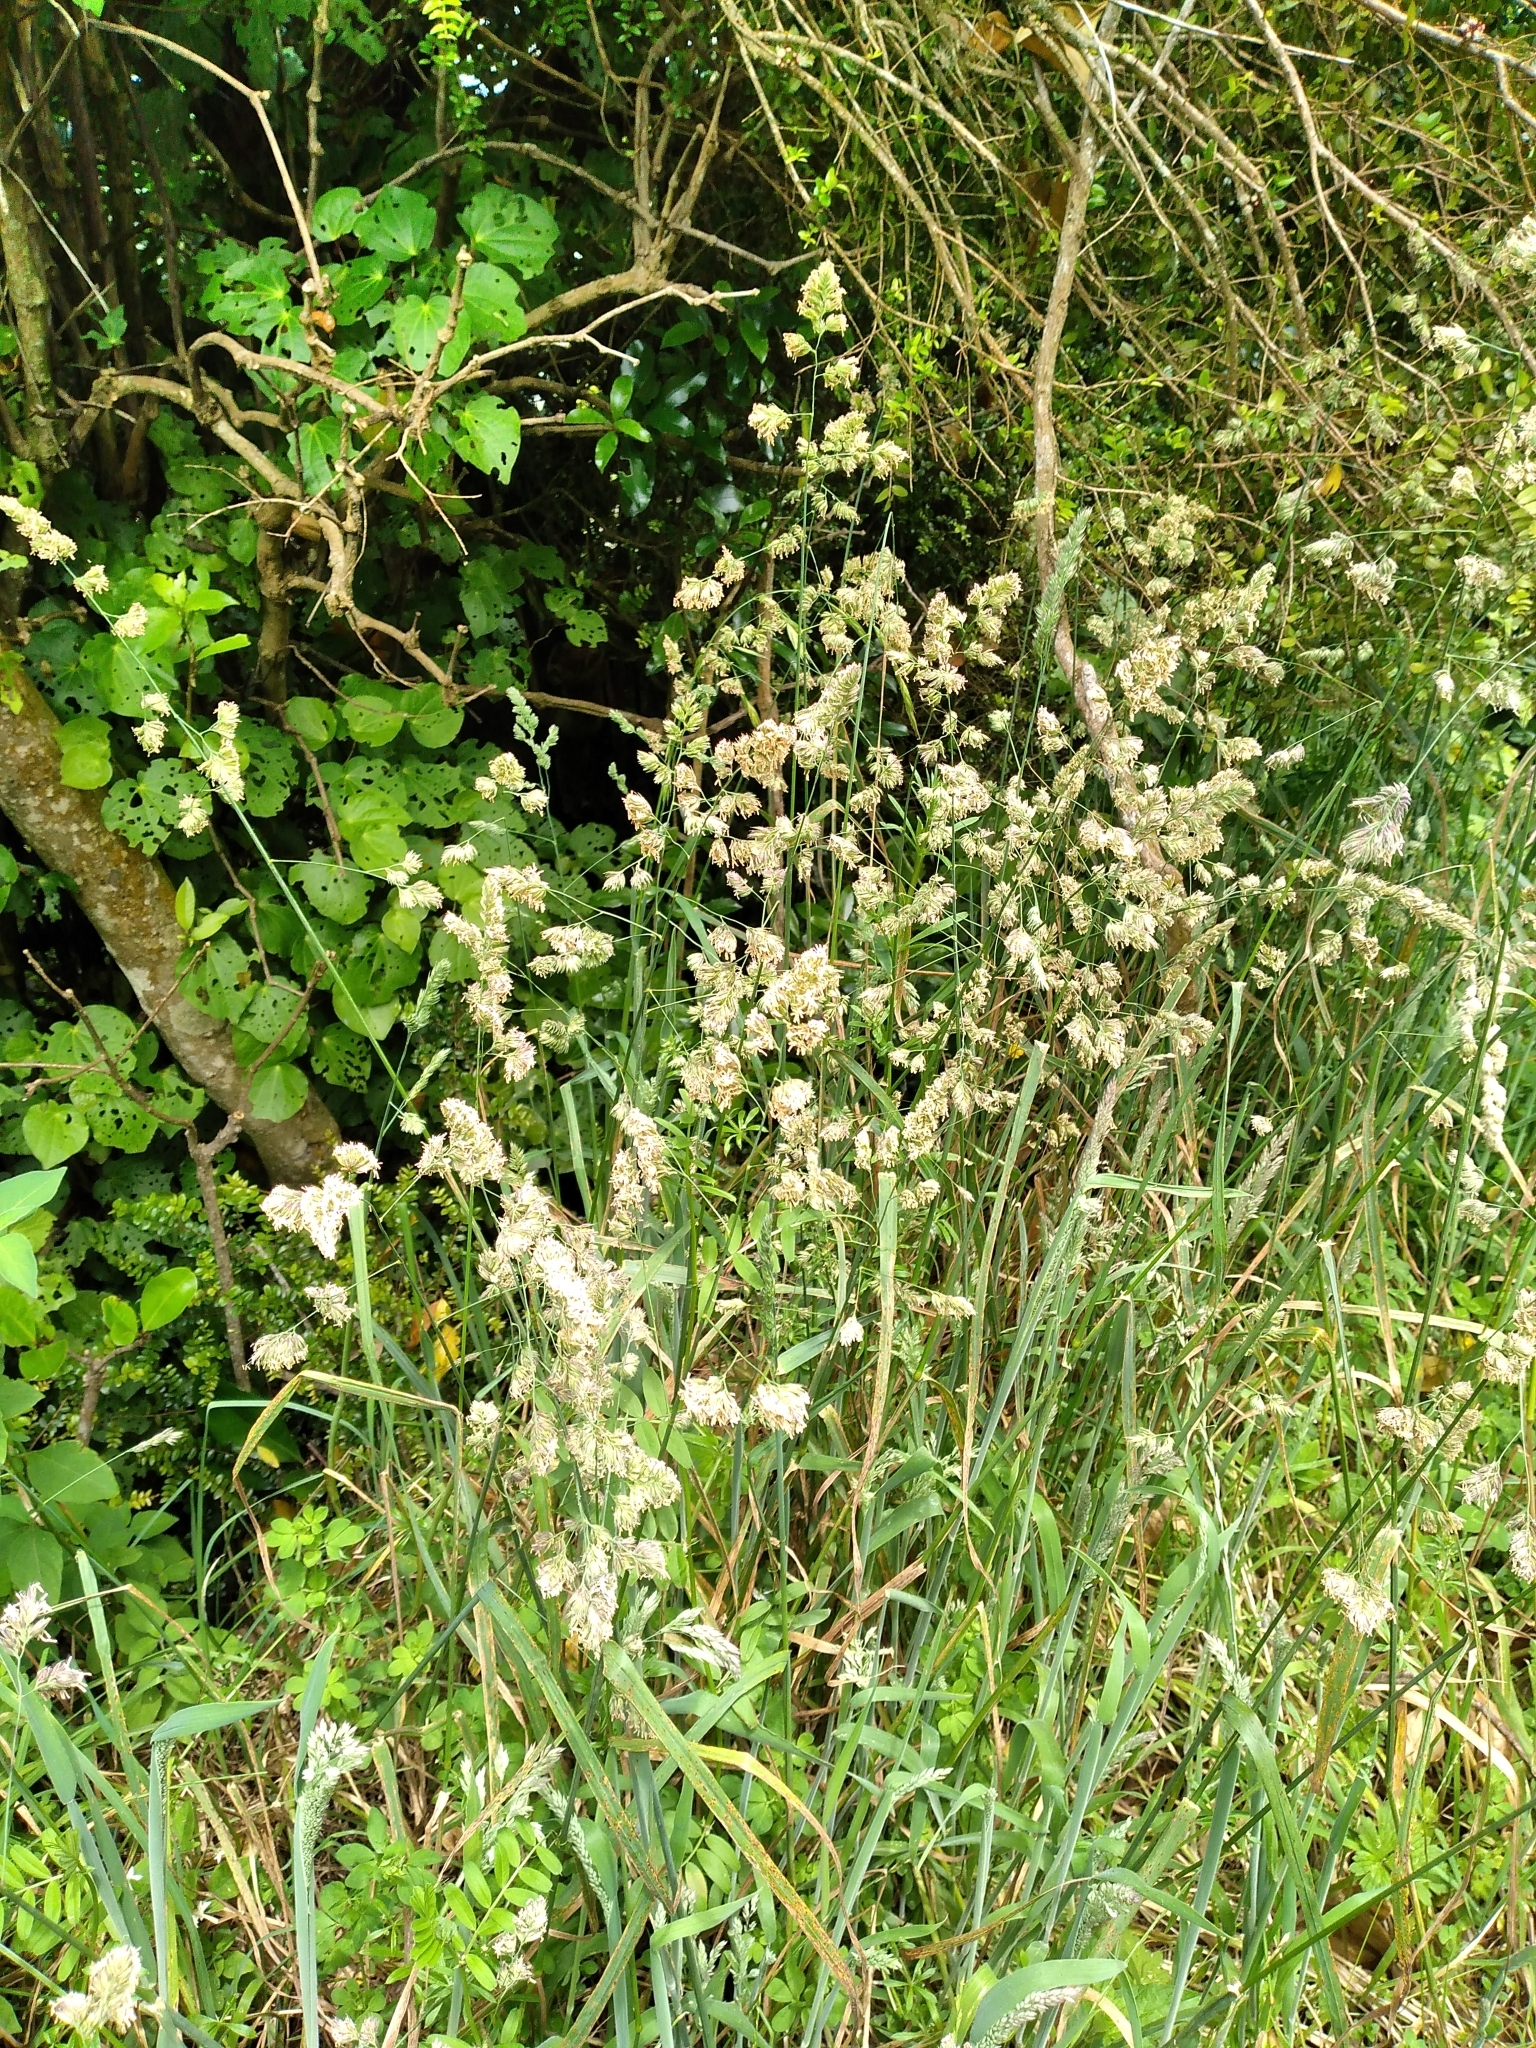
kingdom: Plantae
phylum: Tracheophyta
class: Liliopsida
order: Poales
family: Poaceae
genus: Dactylis
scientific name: Dactylis glomerata
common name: Orchardgrass
